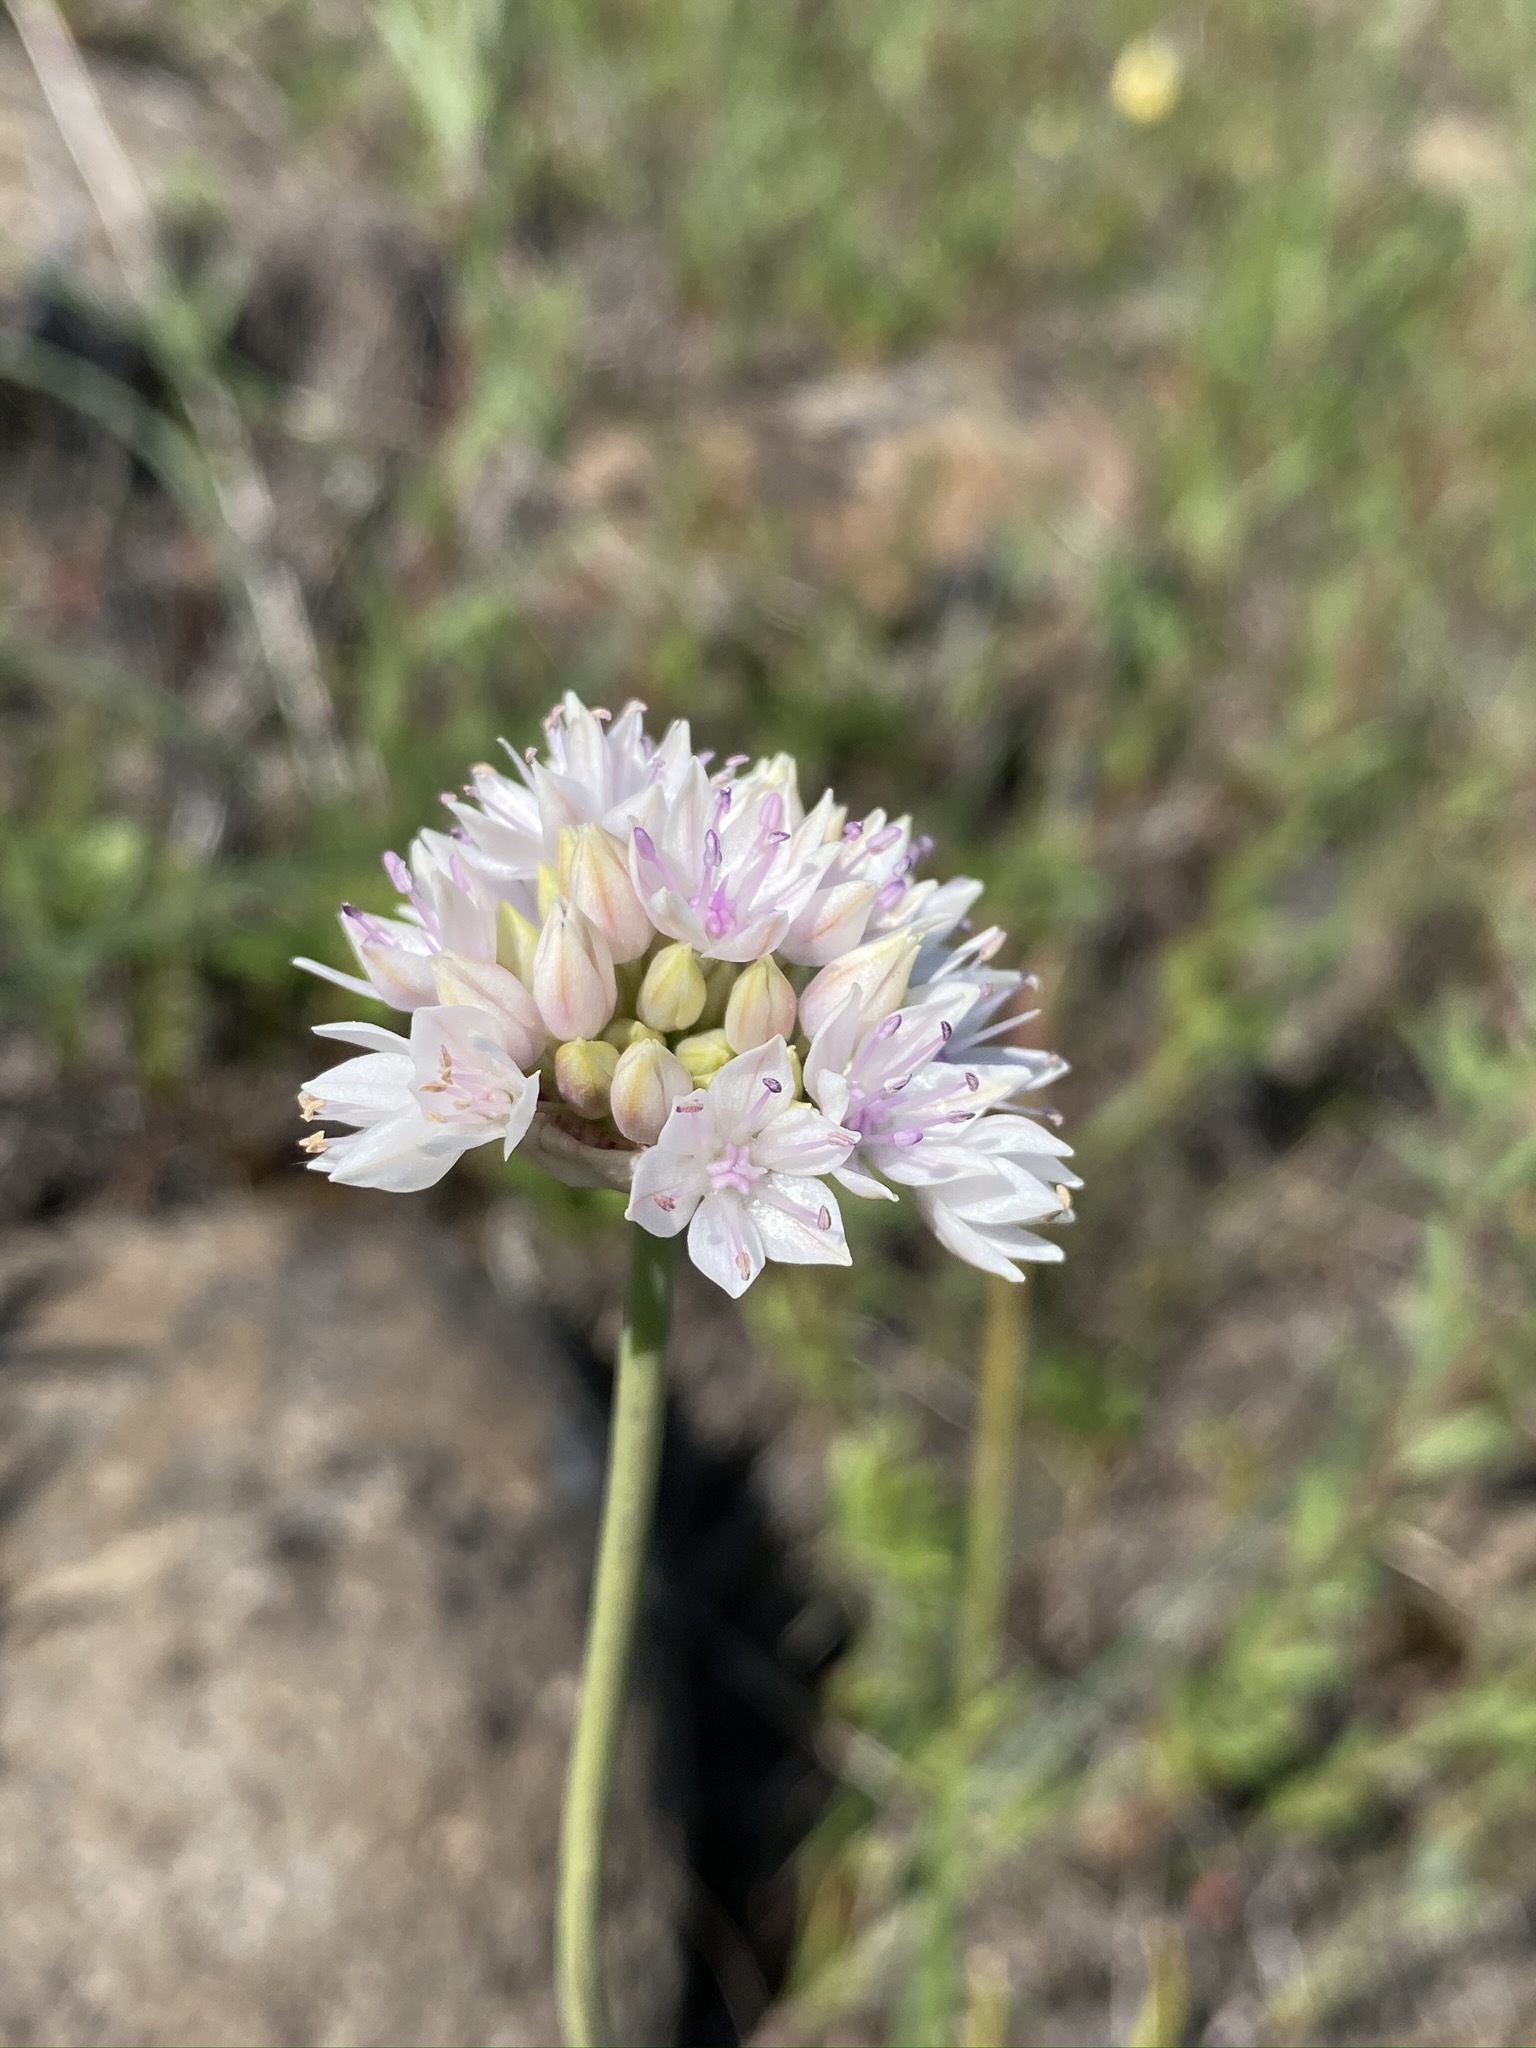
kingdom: Plantae
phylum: Tracheophyta
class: Liliopsida
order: Asparagales
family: Amaryllidaceae
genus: Allium
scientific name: Allium amplectens
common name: Narrow-leaved onion
